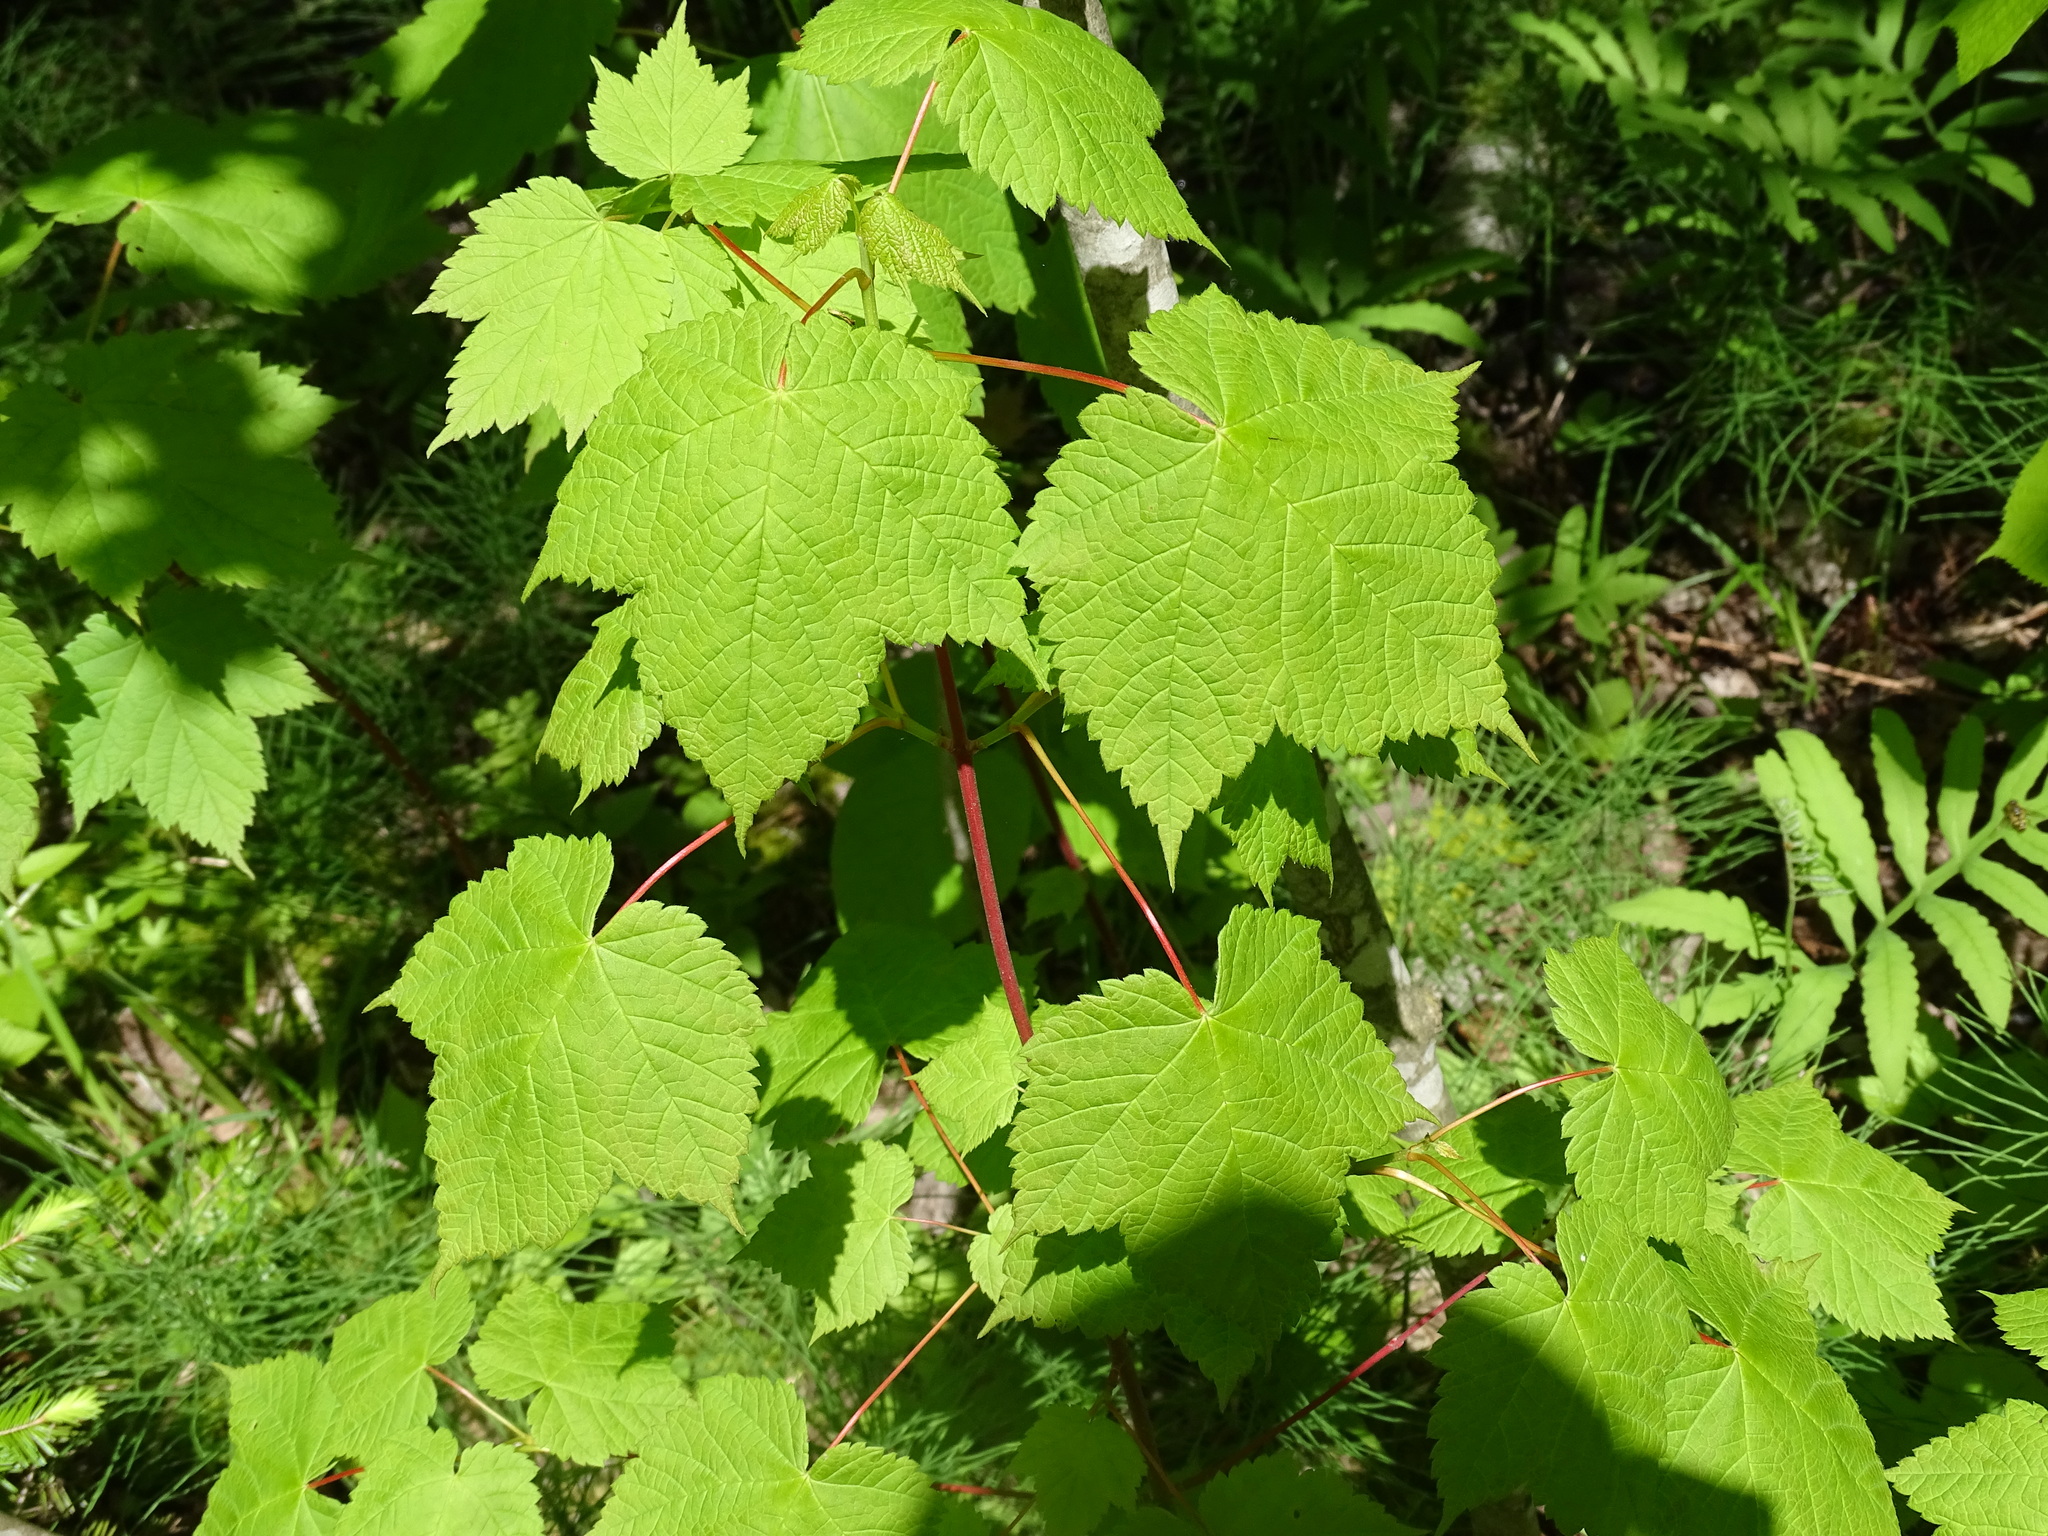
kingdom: Plantae
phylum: Tracheophyta
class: Magnoliopsida
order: Sapindales
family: Sapindaceae
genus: Acer
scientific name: Acer spicatum
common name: Mountain maple
